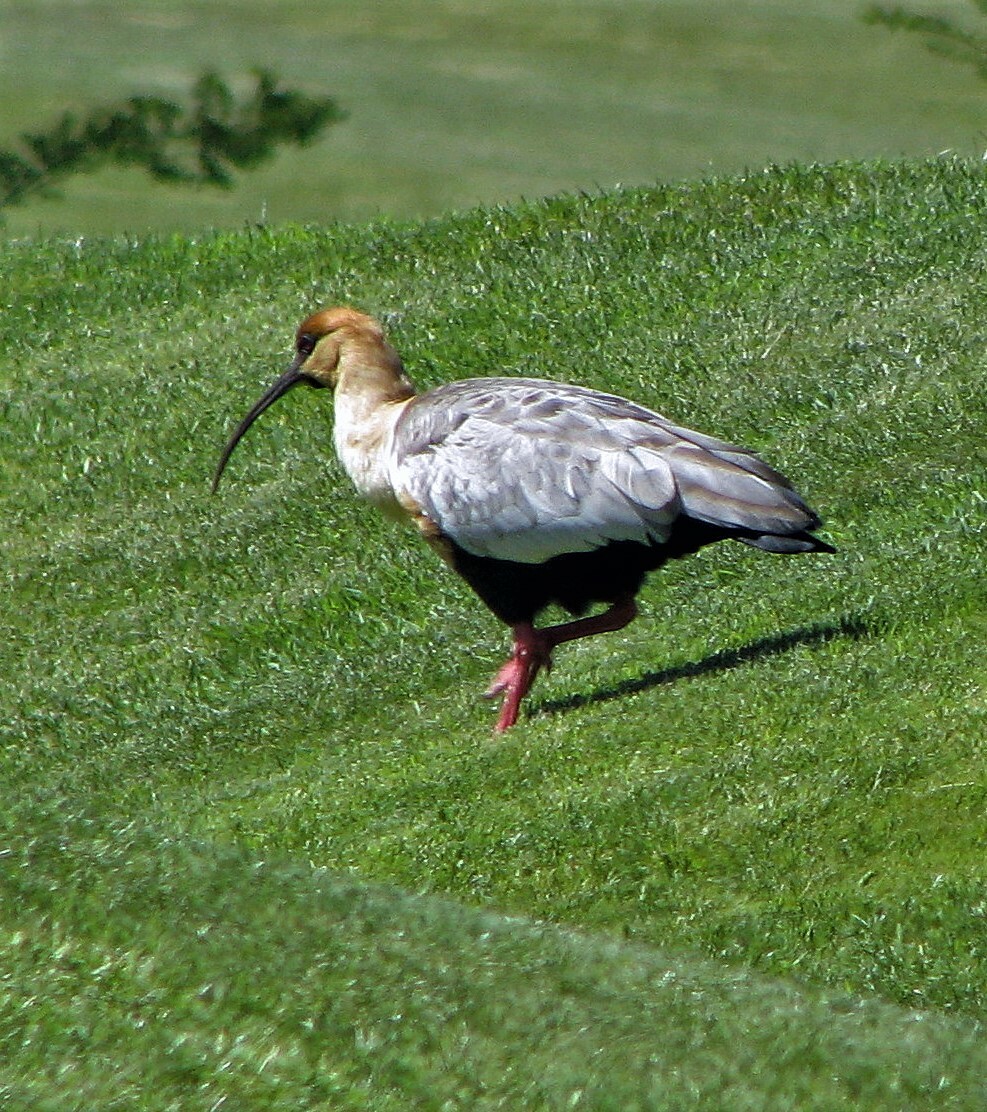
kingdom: Animalia
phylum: Chordata
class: Aves
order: Pelecaniformes
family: Threskiornithidae
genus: Theristicus
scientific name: Theristicus melanopis
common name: Black-faced ibis
